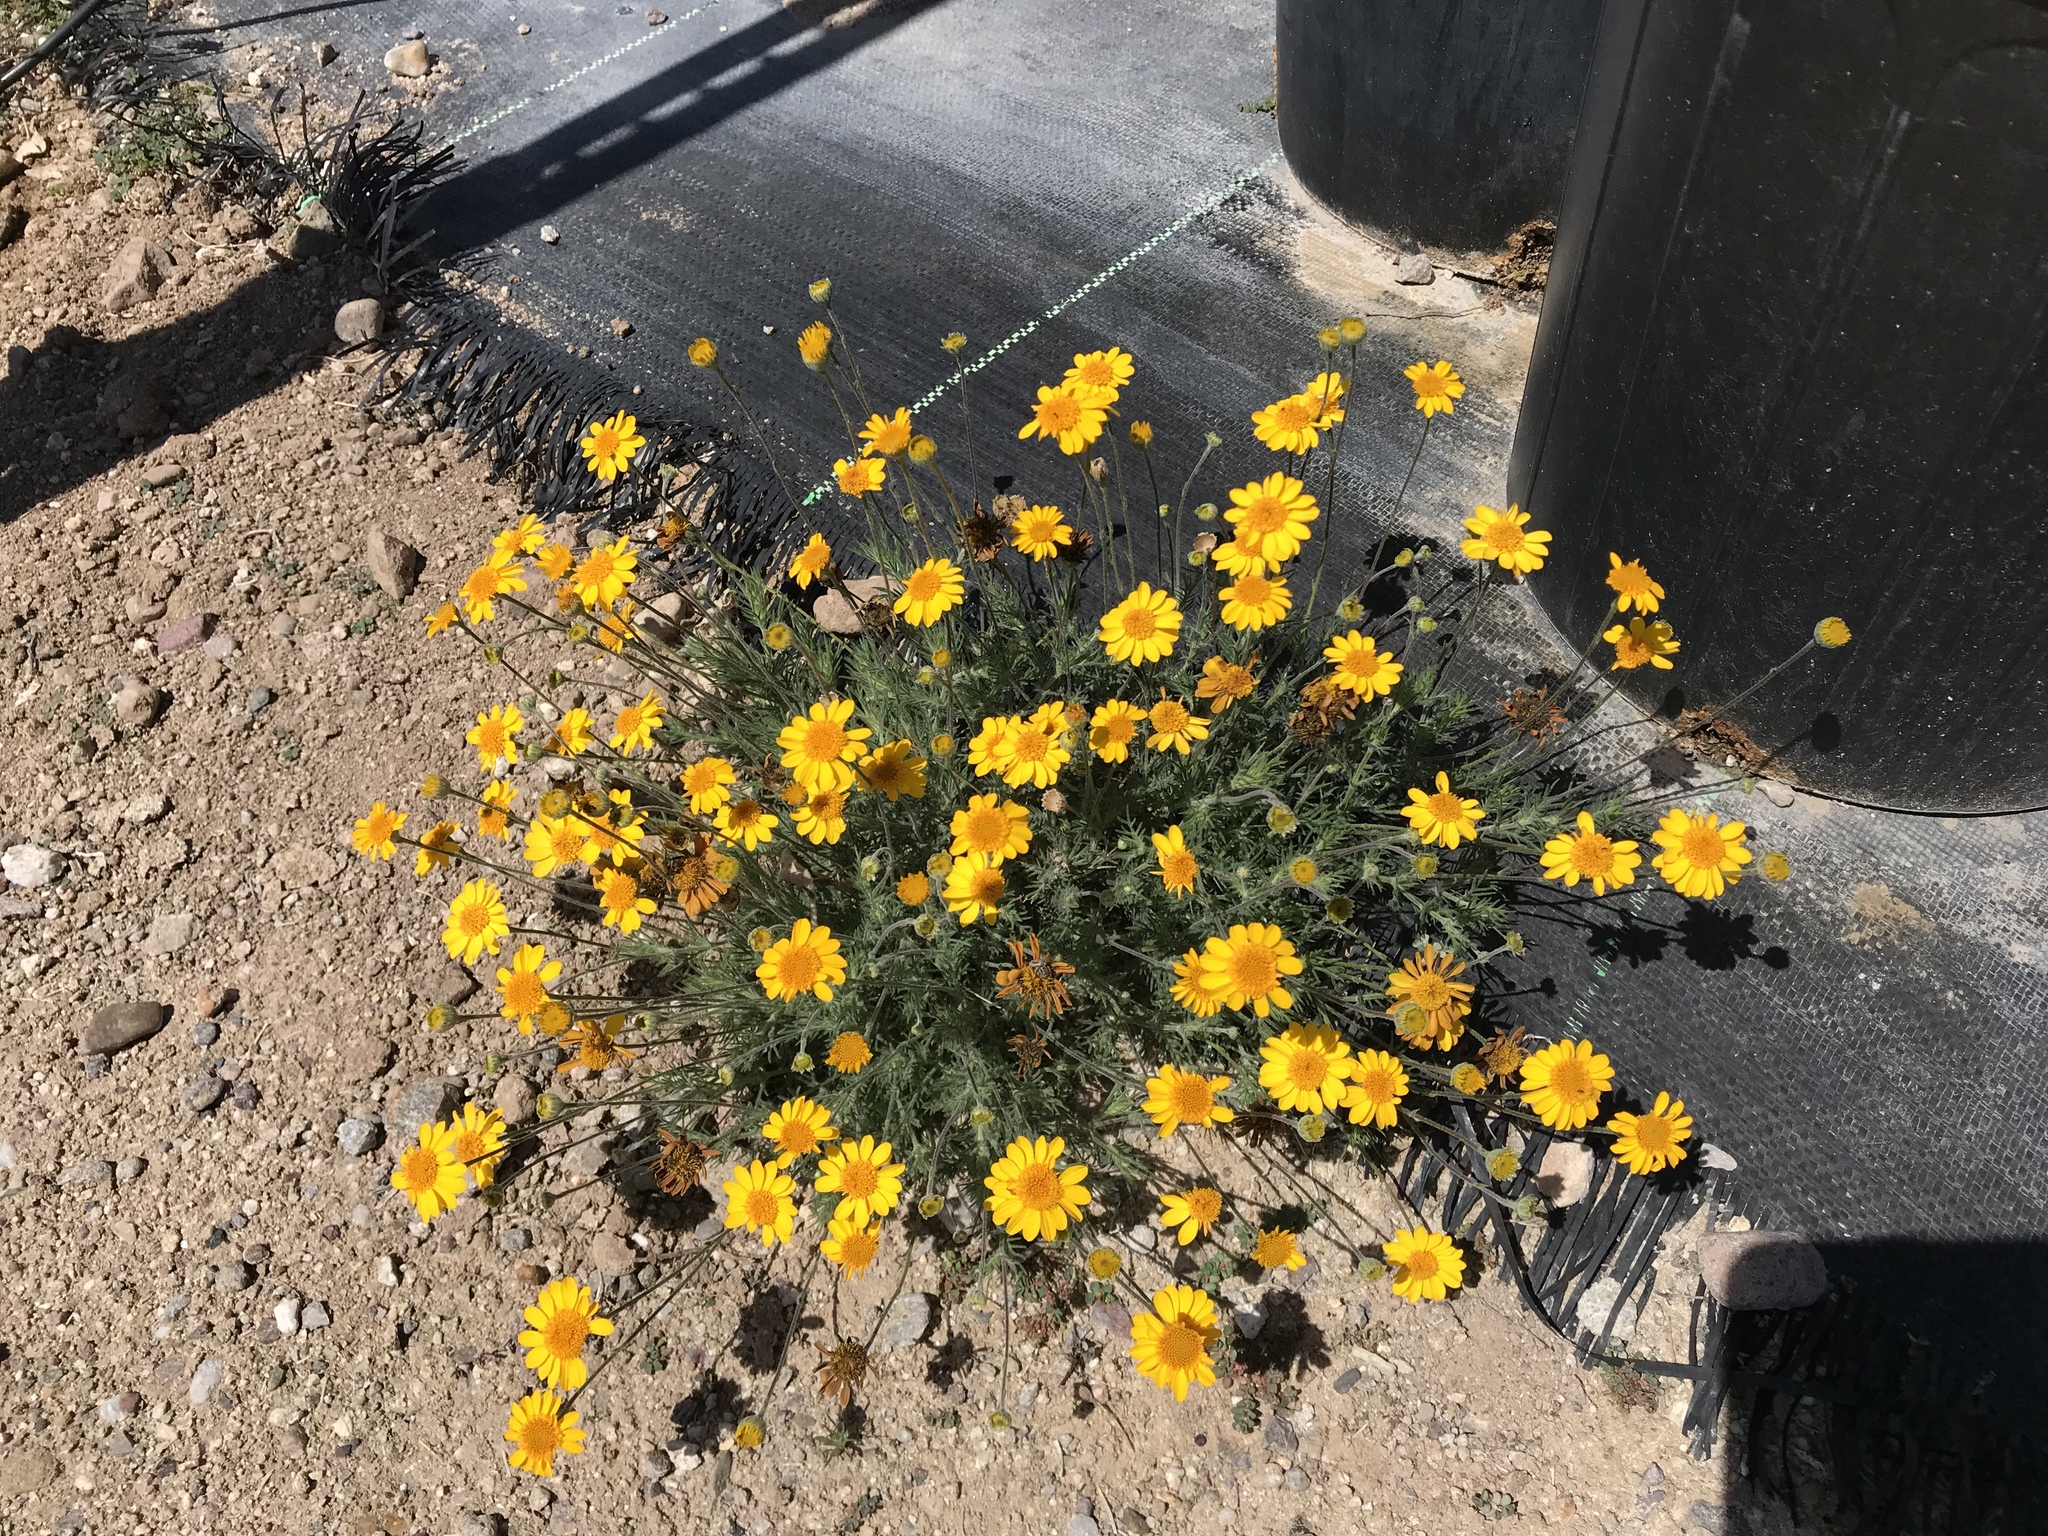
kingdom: Plantae
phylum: Tracheophyta
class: Magnoliopsida
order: Asterales
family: Asteraceae
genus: Thymophylla
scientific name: Thymophylla pentachaeta
